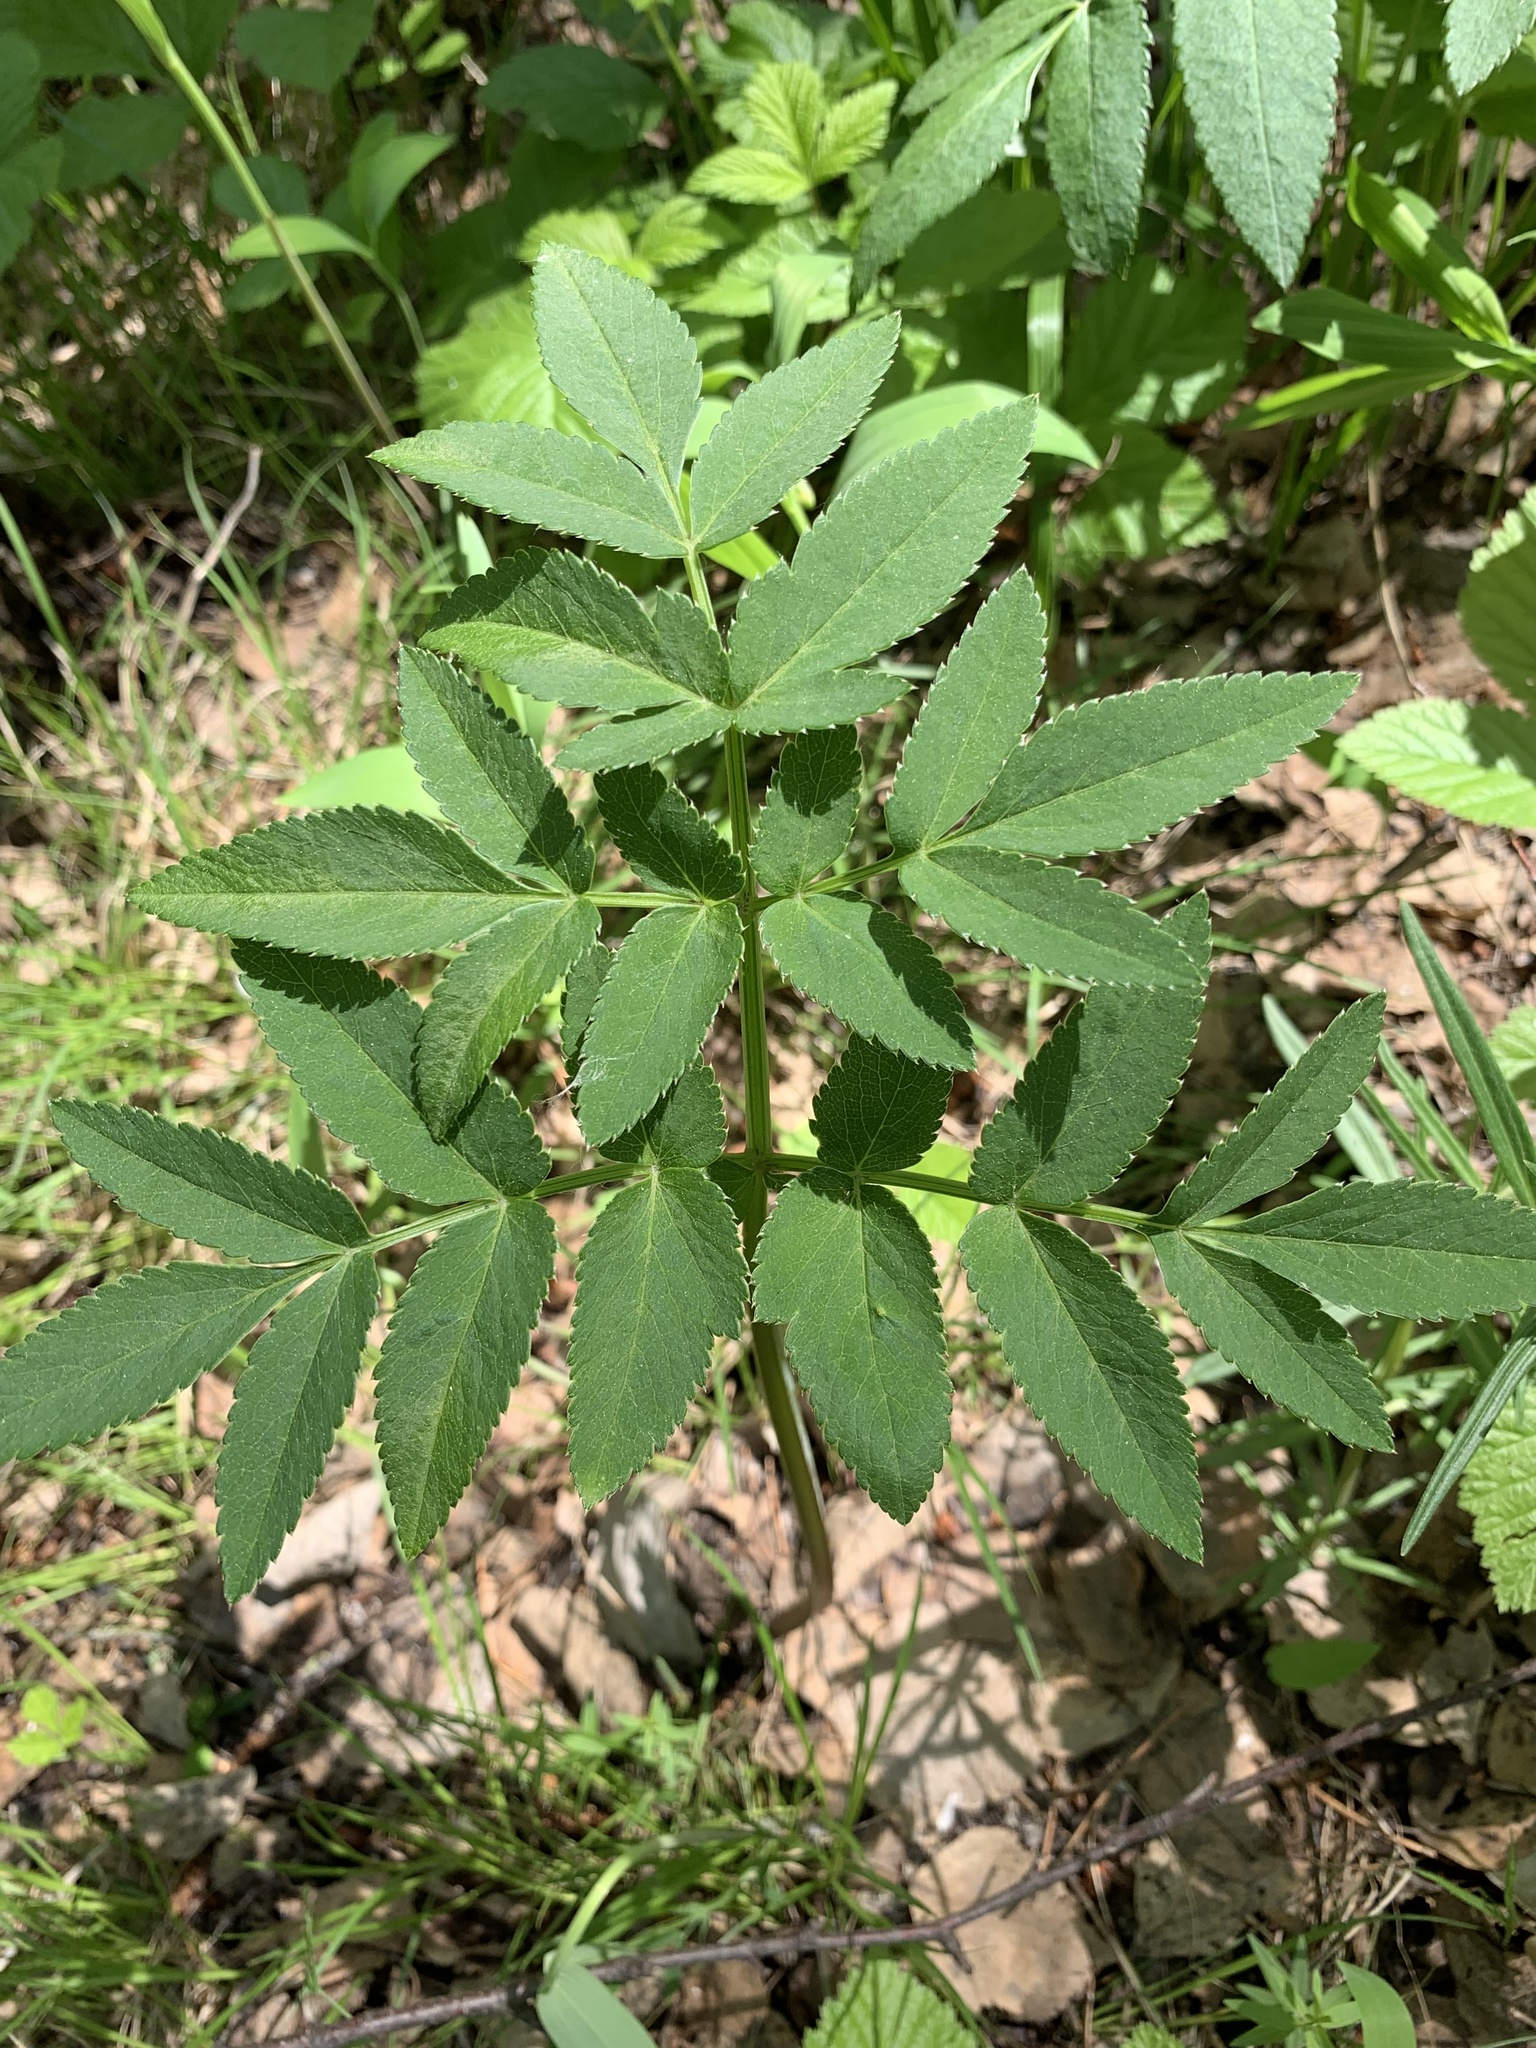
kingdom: Plantae
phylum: Tracheophyta
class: Magnoliopsida
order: Apiales
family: Apiaceae
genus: Angelica
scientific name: Angelica sylvestris
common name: Wild angelica
